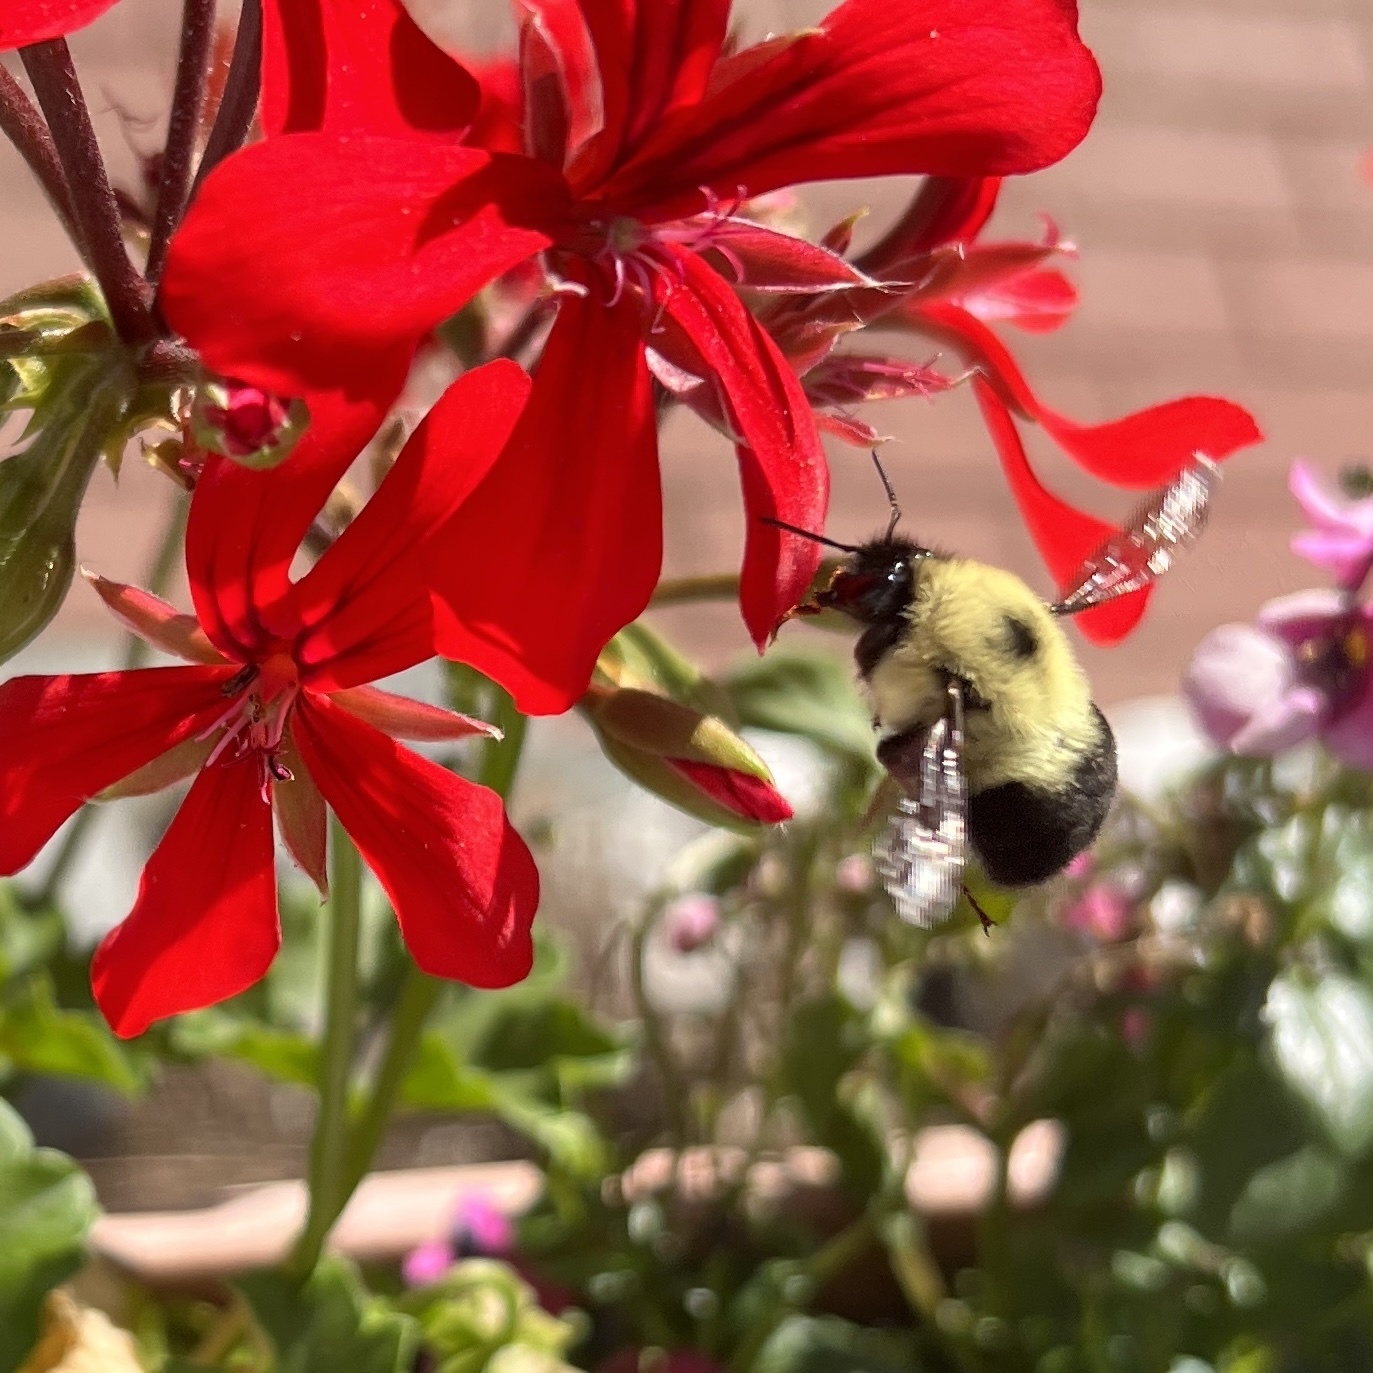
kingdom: Animalia
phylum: Arthropoda
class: Insecta
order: Hymenoptera
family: Apidae
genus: Bombus
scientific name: Bombus bimaculatus
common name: Two-spotted bumble bee
